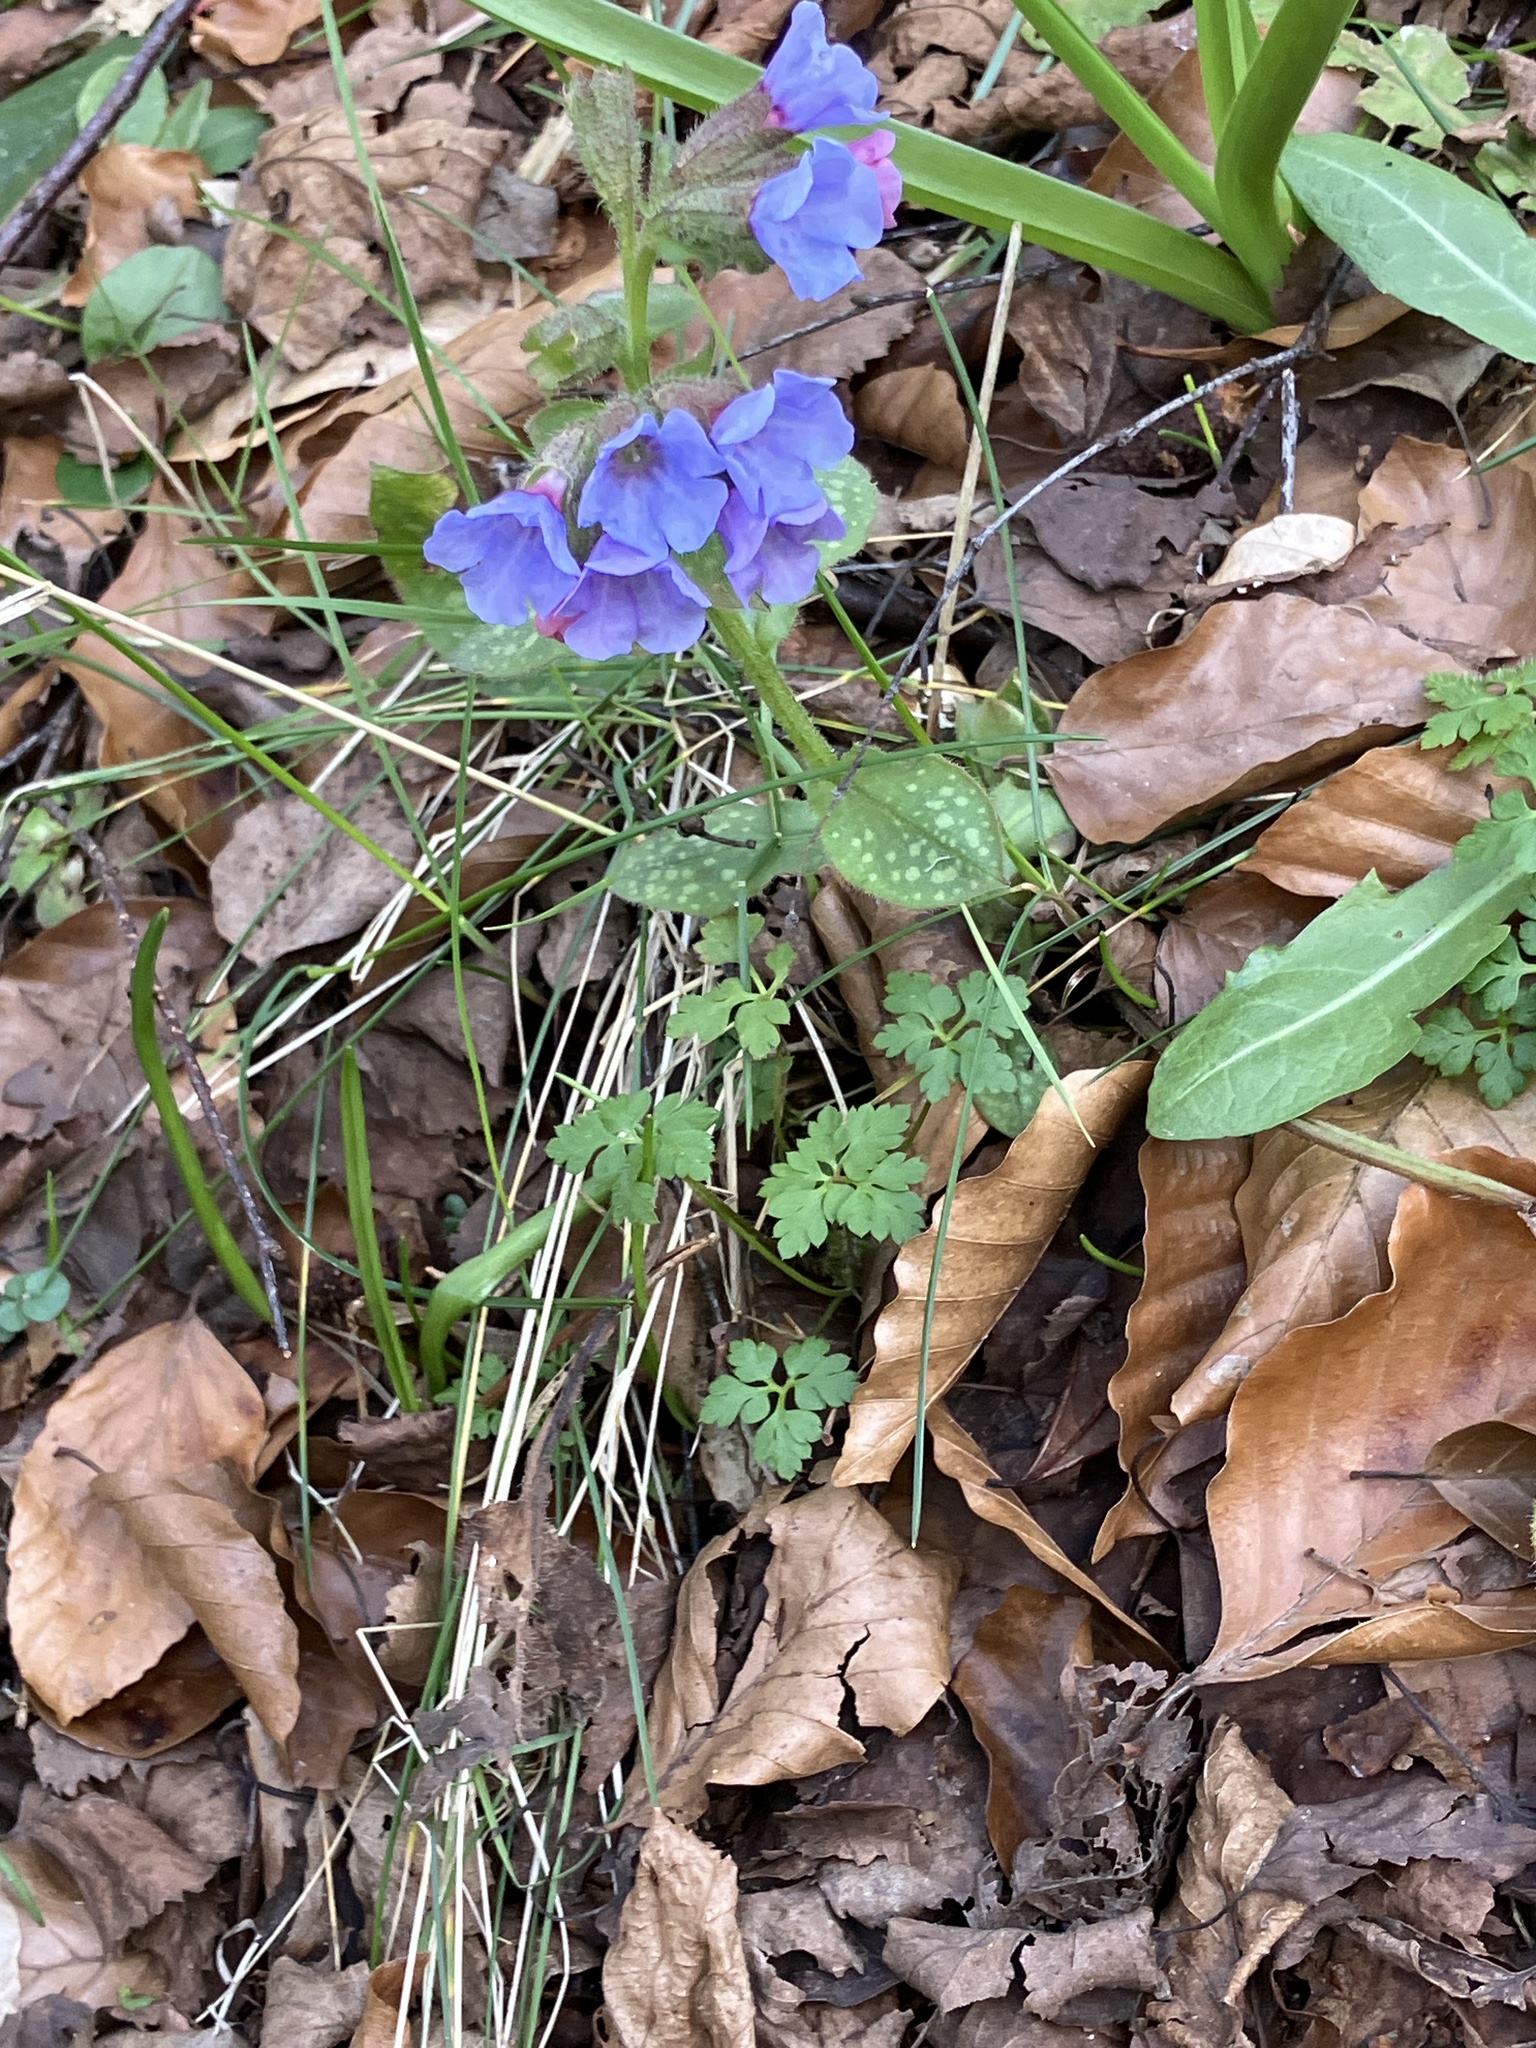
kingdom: Plantae
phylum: Tracheophyta
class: Magnoliopsida
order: Boraginales
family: Boraginaceae
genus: Pulmonaria
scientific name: Pulmonaria officinalis
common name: Lungwort
